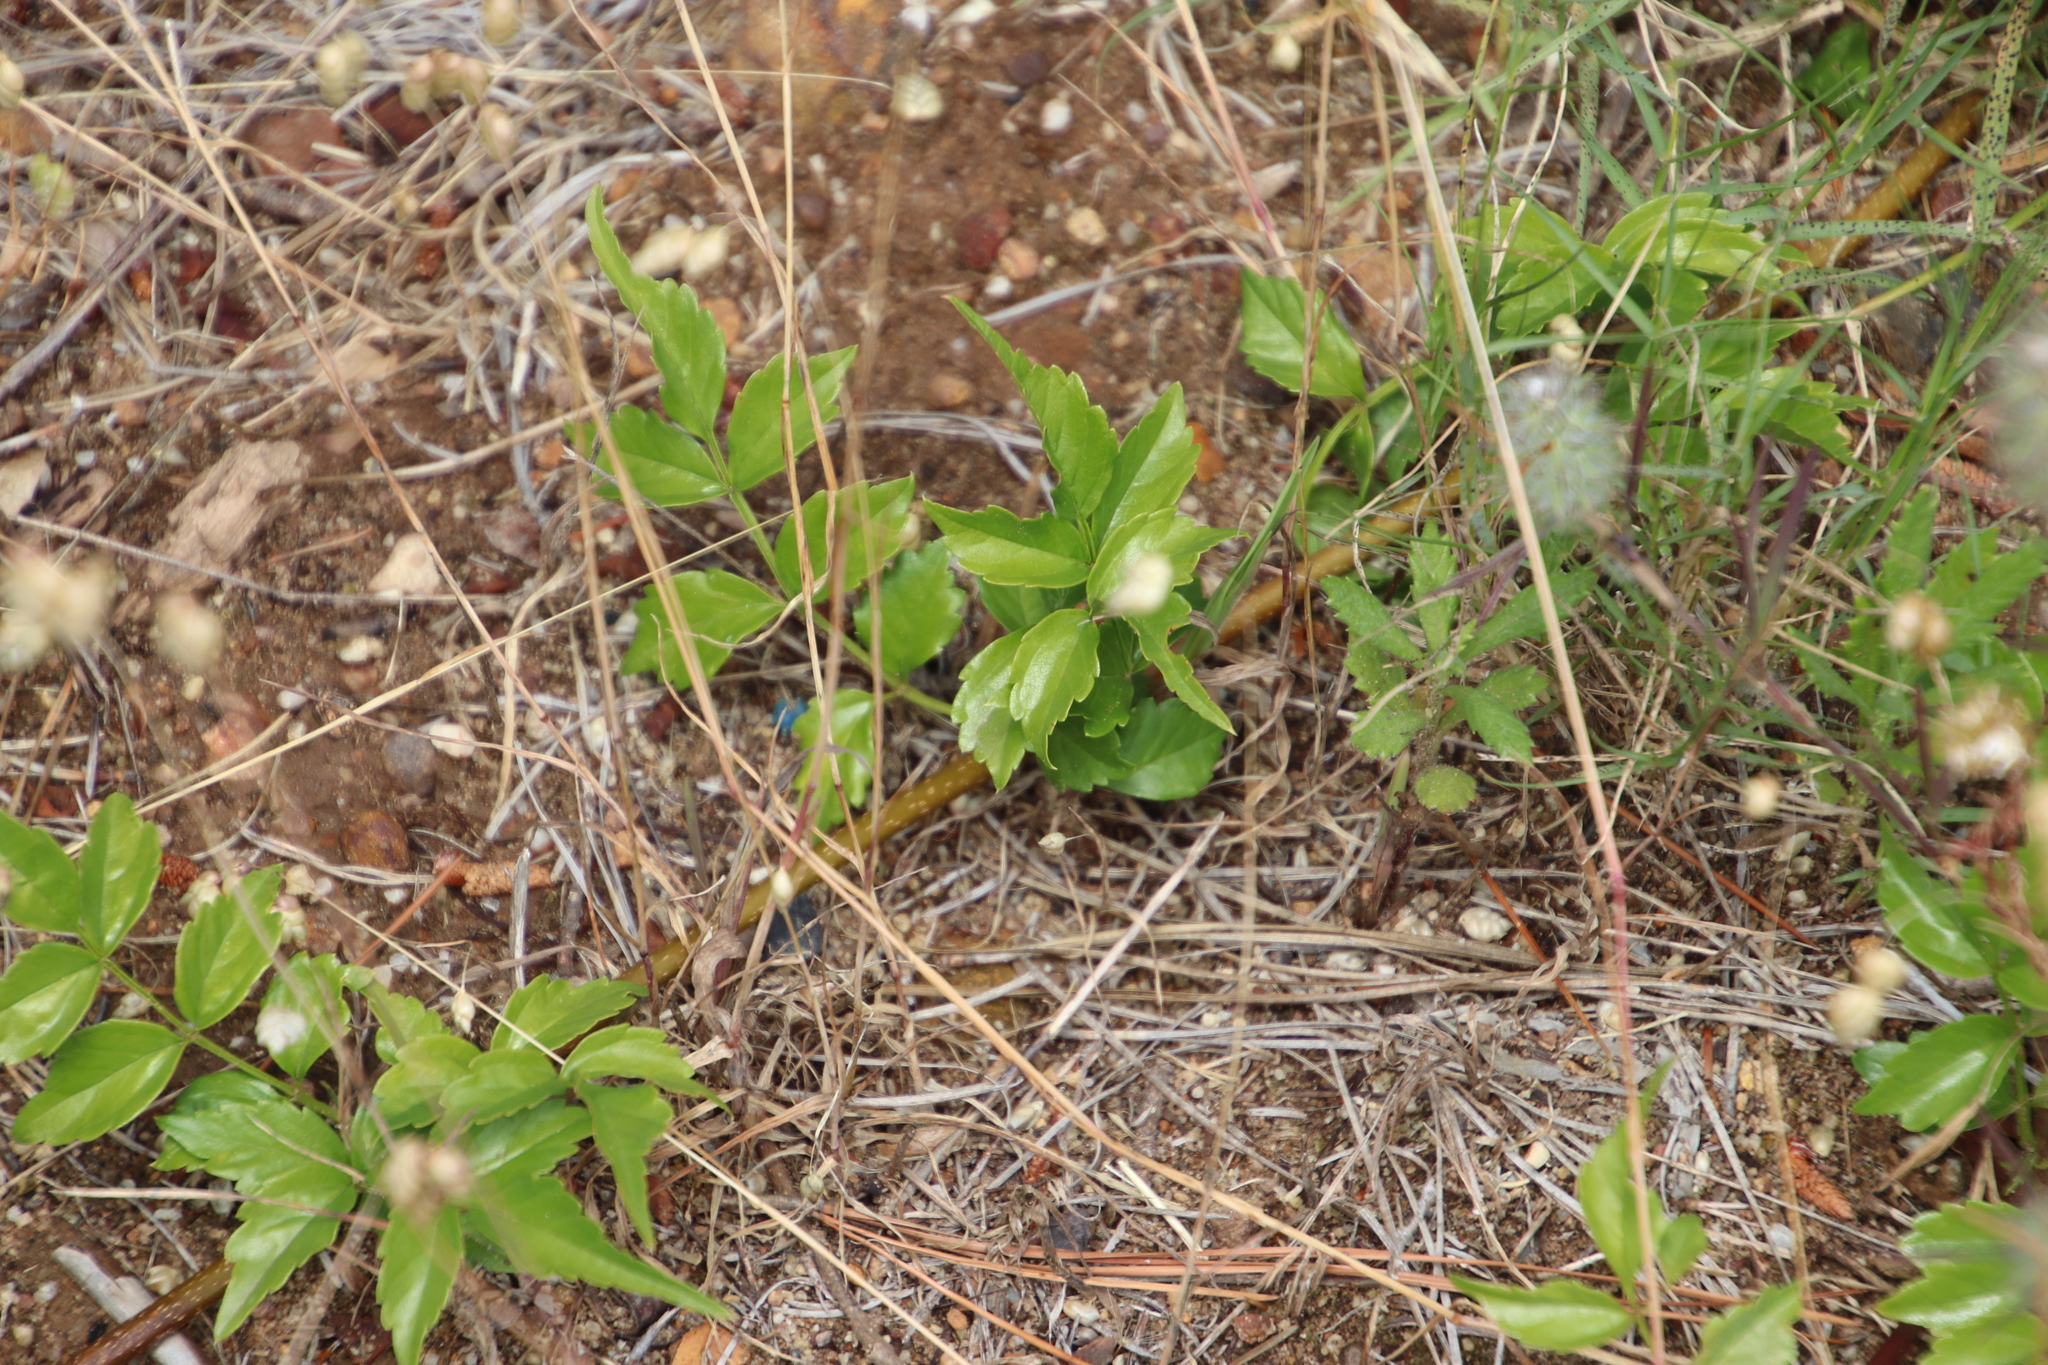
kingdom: Plantae
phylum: Tracheophyta
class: Magnoliopsida
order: Lamiales
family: Bignoniaceae
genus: Tecomaria
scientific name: Tecomaria capensis
